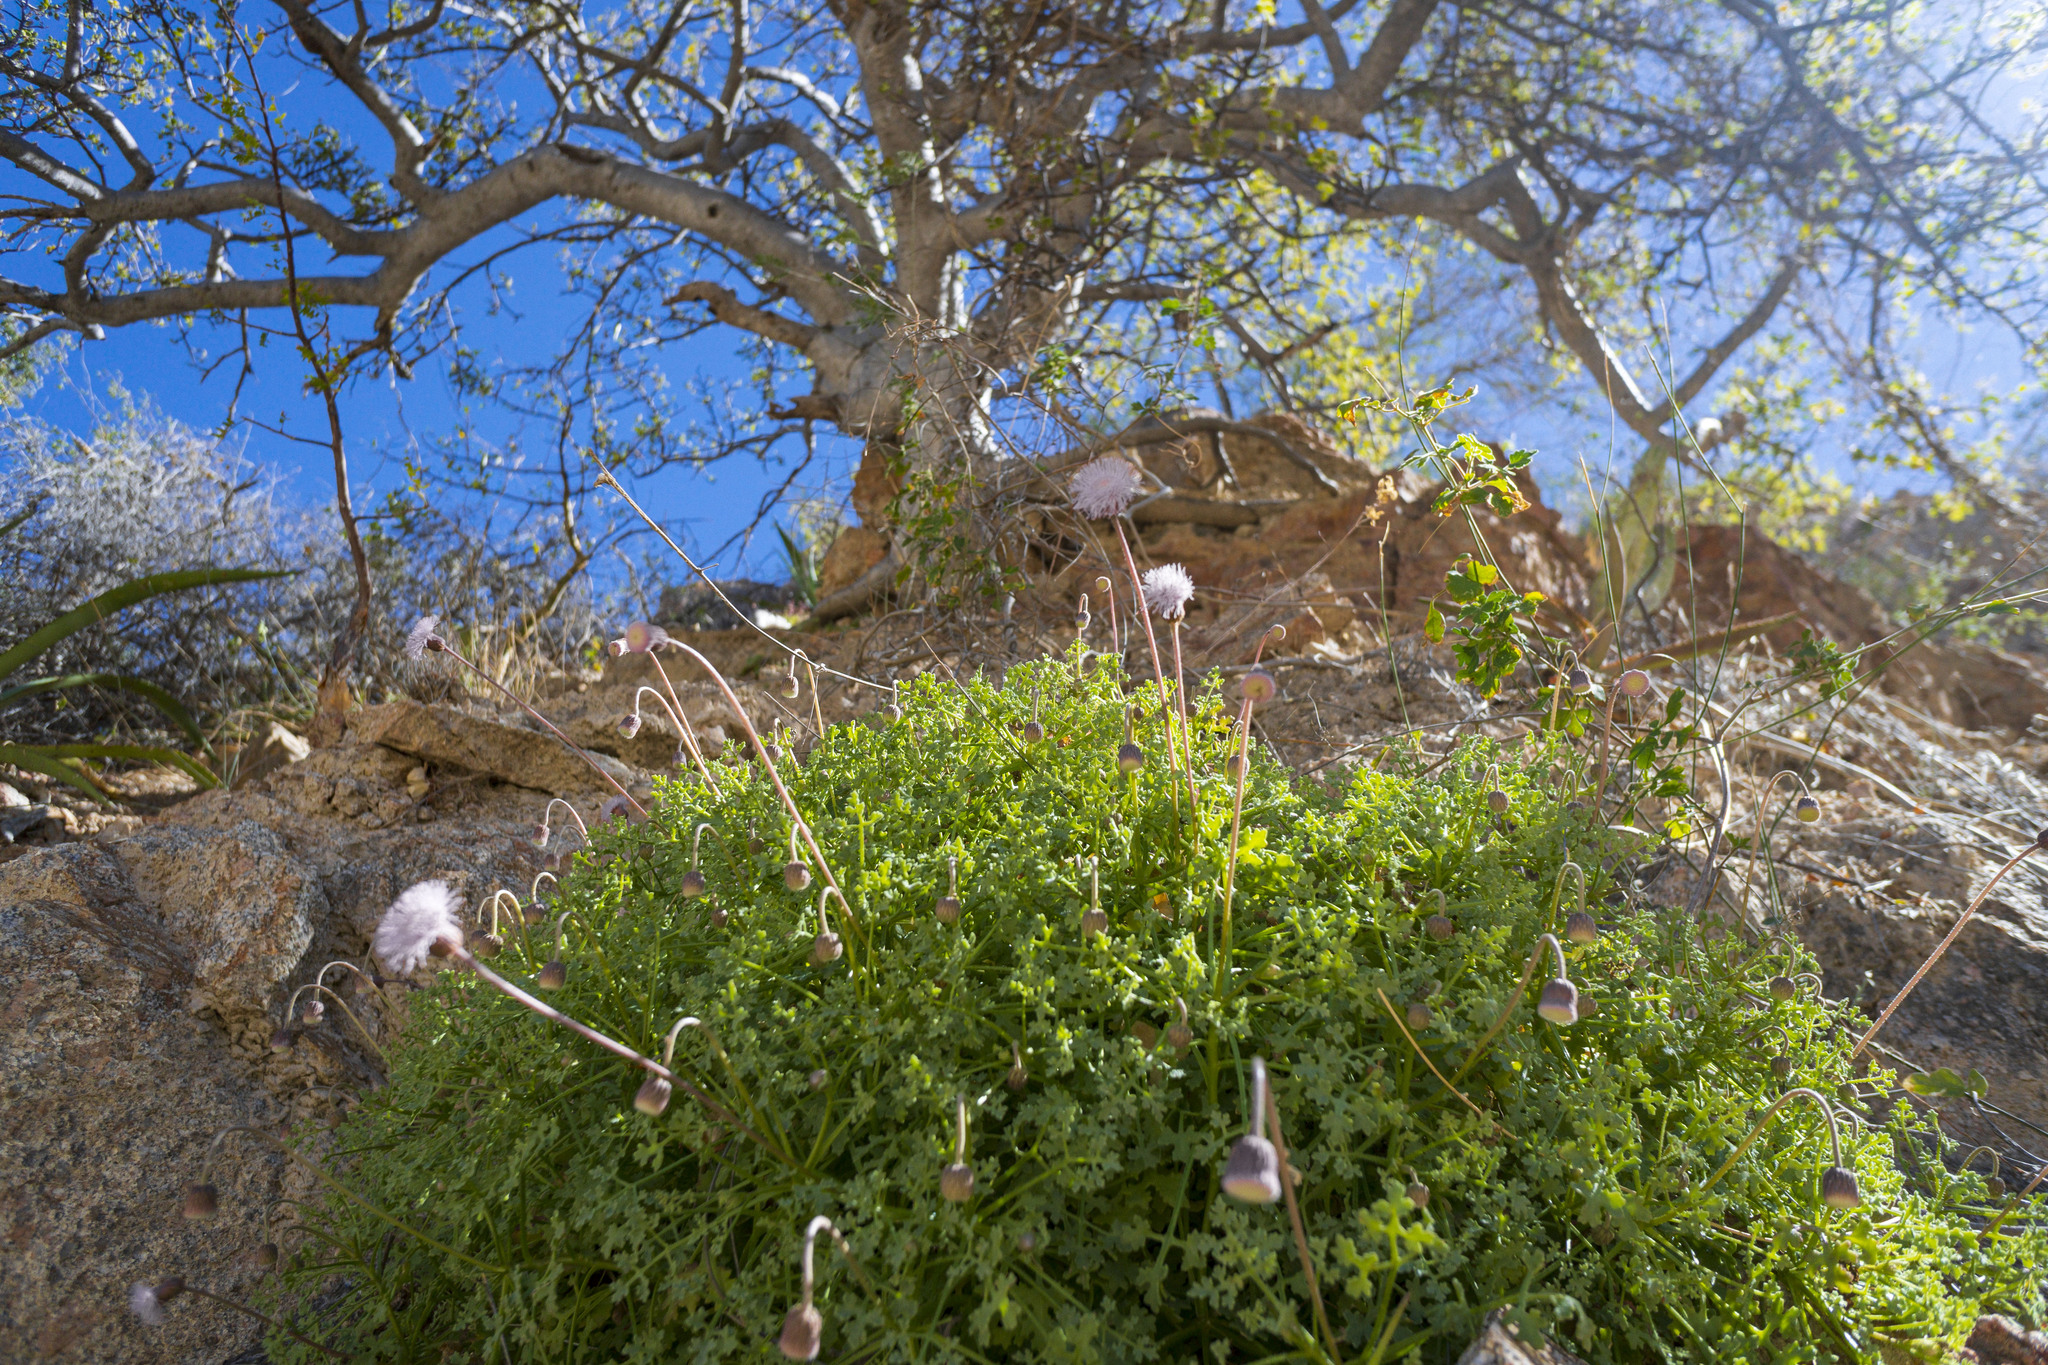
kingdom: Plantae
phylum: Tracheophyta
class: Magnoliopsida
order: Asterales
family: Asteraceae
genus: Hofmeisteria
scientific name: Hofmeisteria fasciculata
